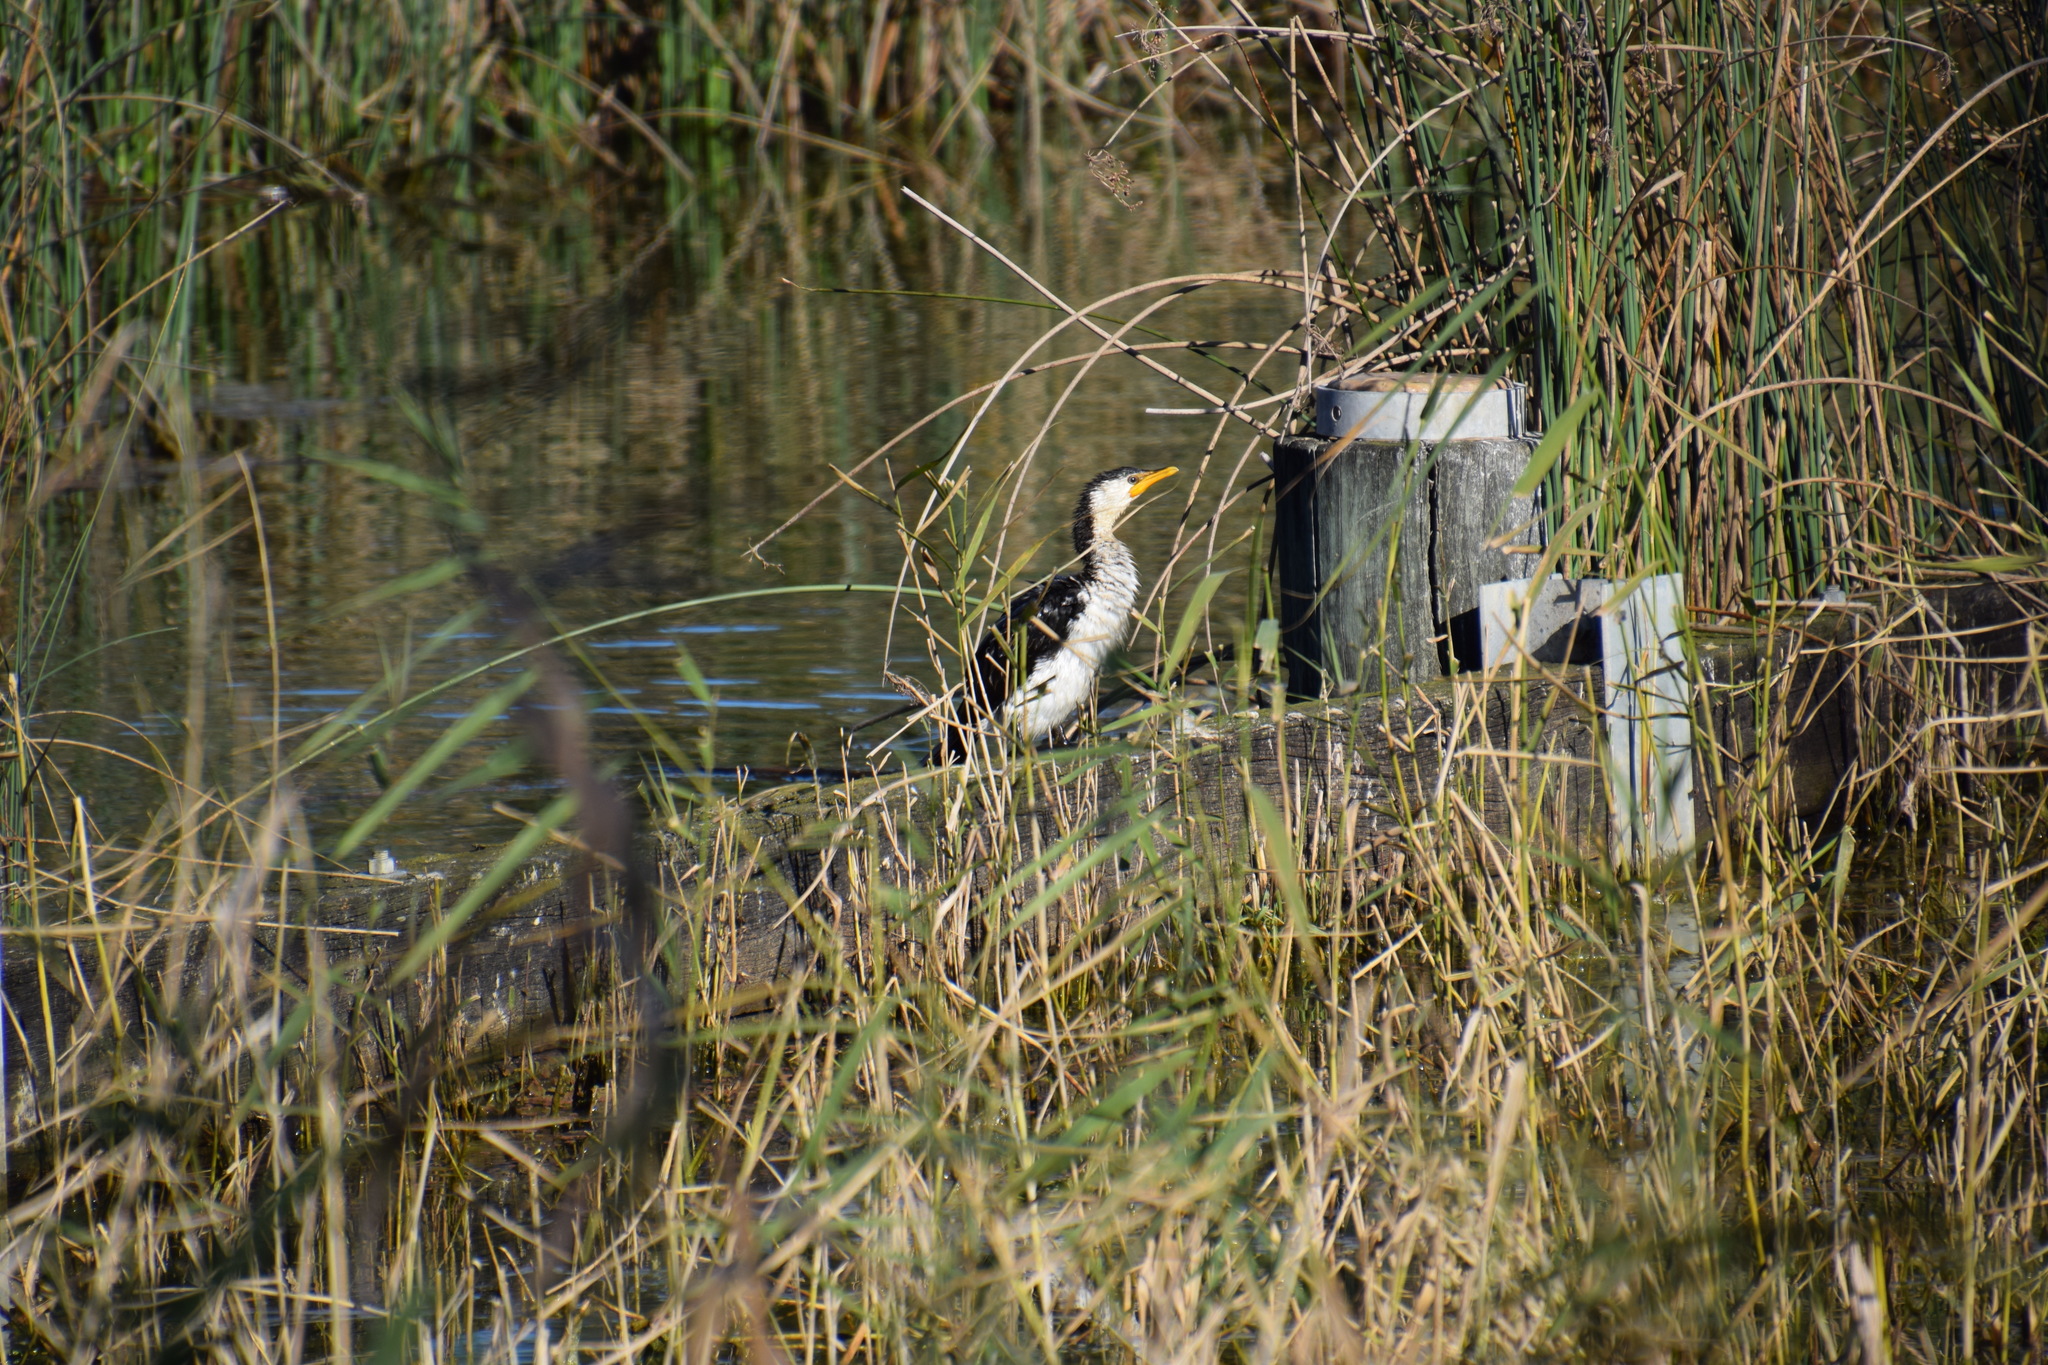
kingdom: Animalia
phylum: Chordata
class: Aves
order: Suliformes
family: Phalacrocoracidae
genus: Microcarbo
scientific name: Microcarbo melanoleucos
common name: Little pied cormorant
